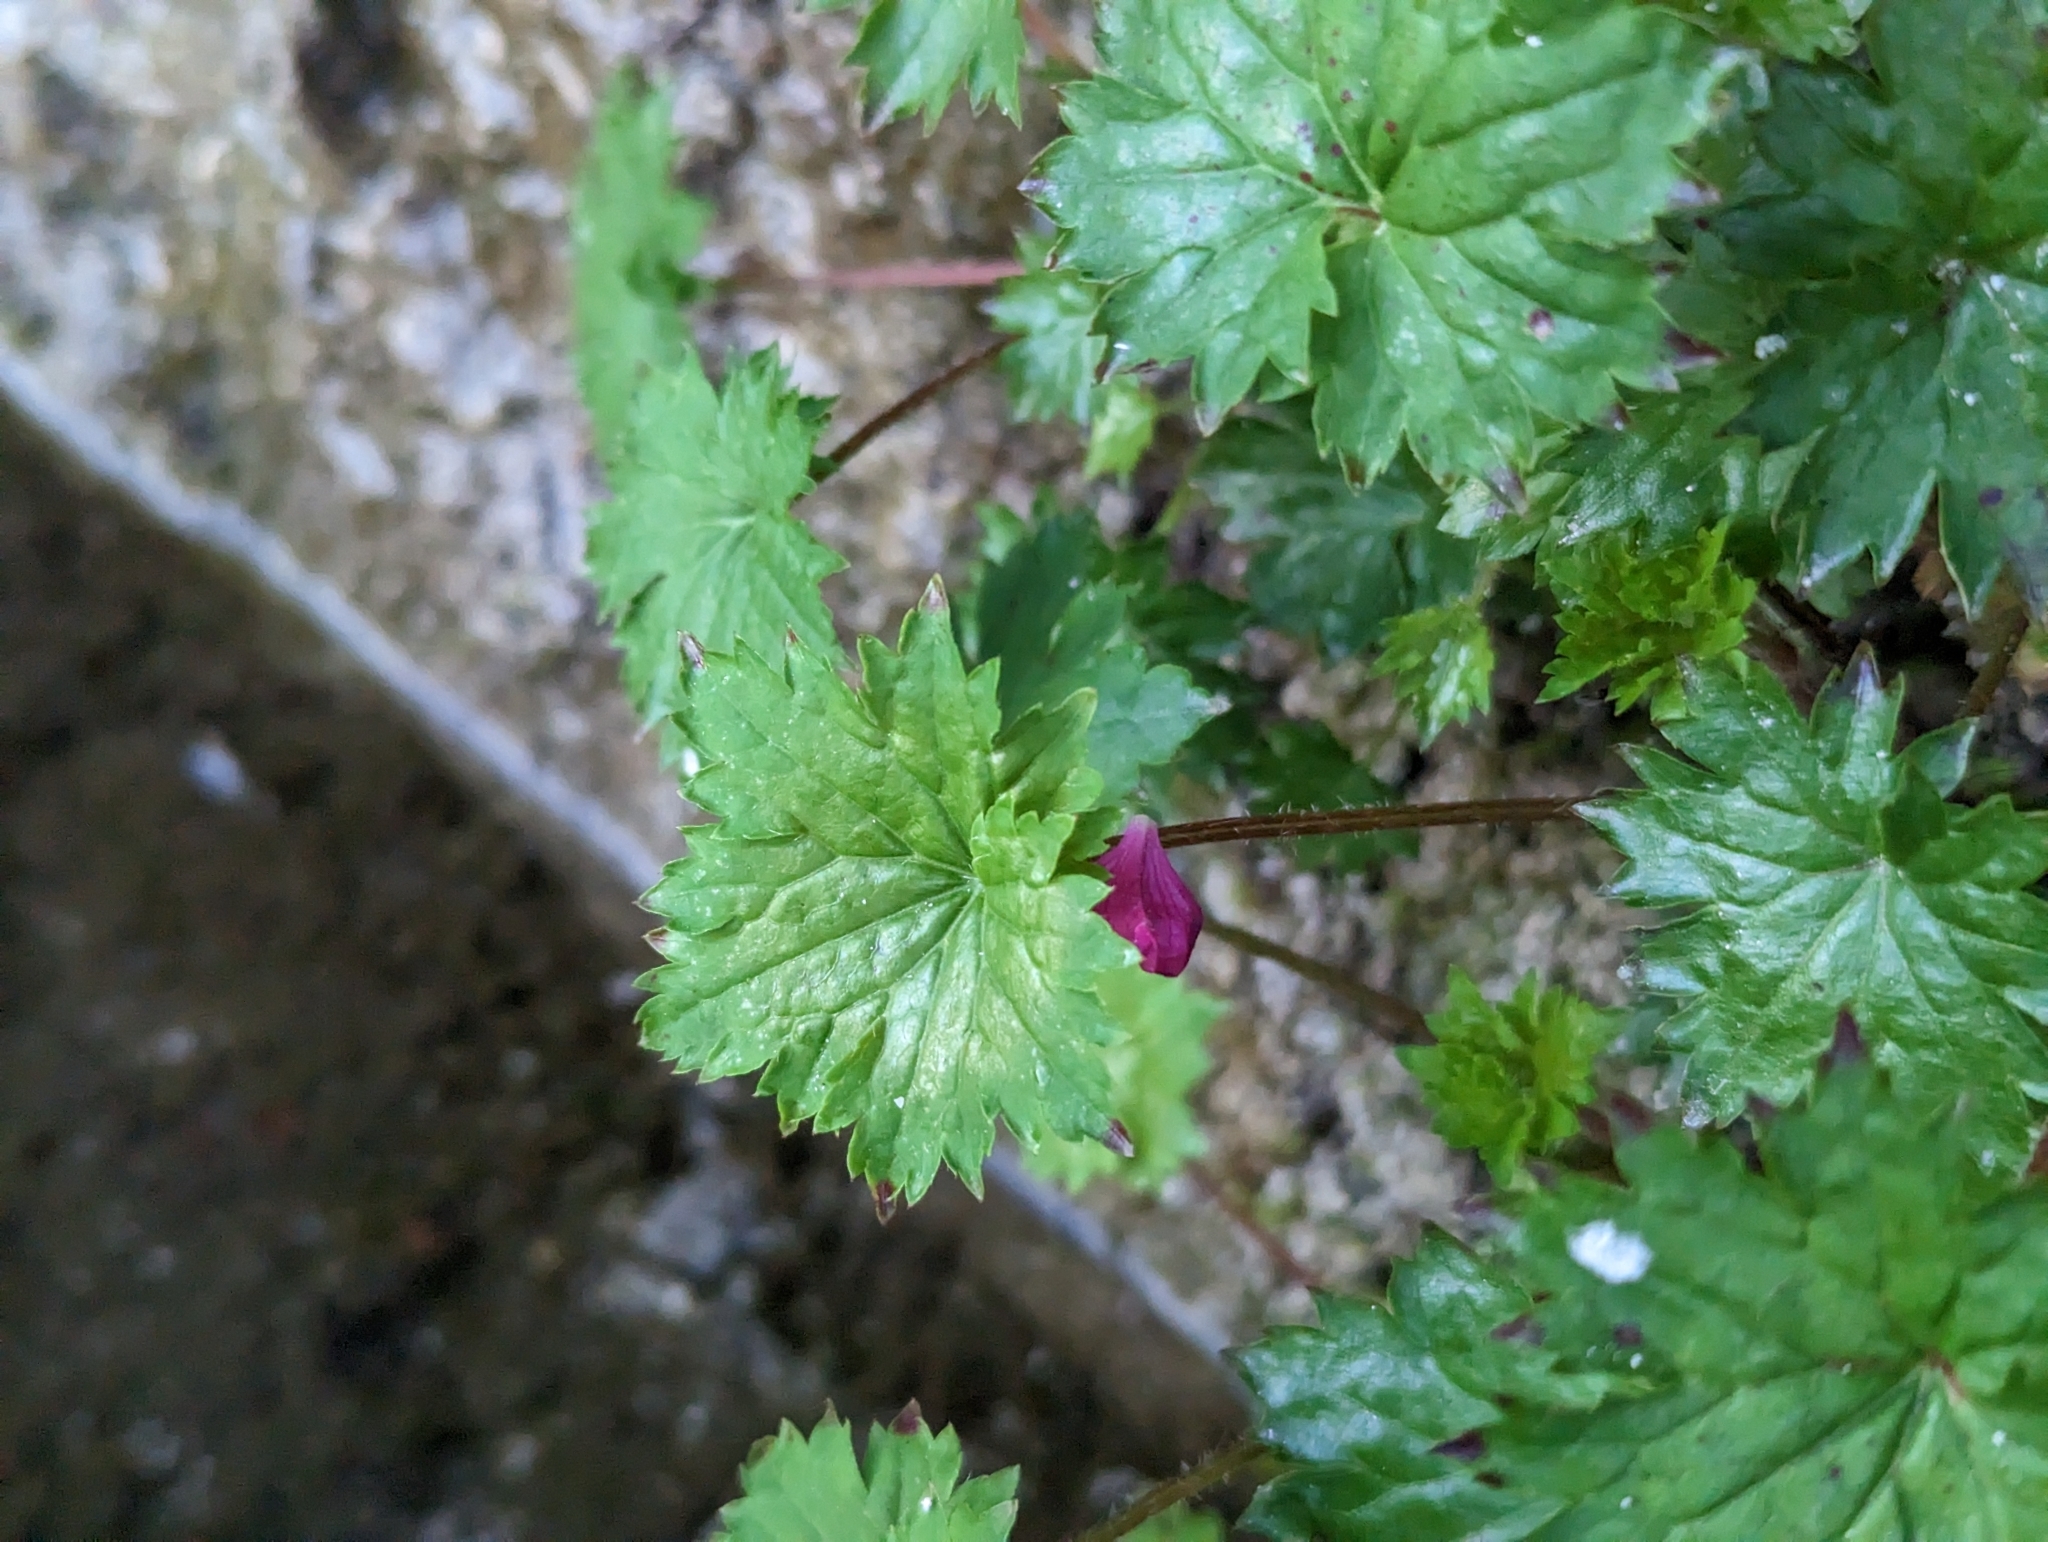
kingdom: Plantae
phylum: Tracheophyta
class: Magnoliopsida
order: Saxifragales
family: Saxifragaceae
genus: Boykinia
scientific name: Boykinia occidentalis
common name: Coast boykinia
